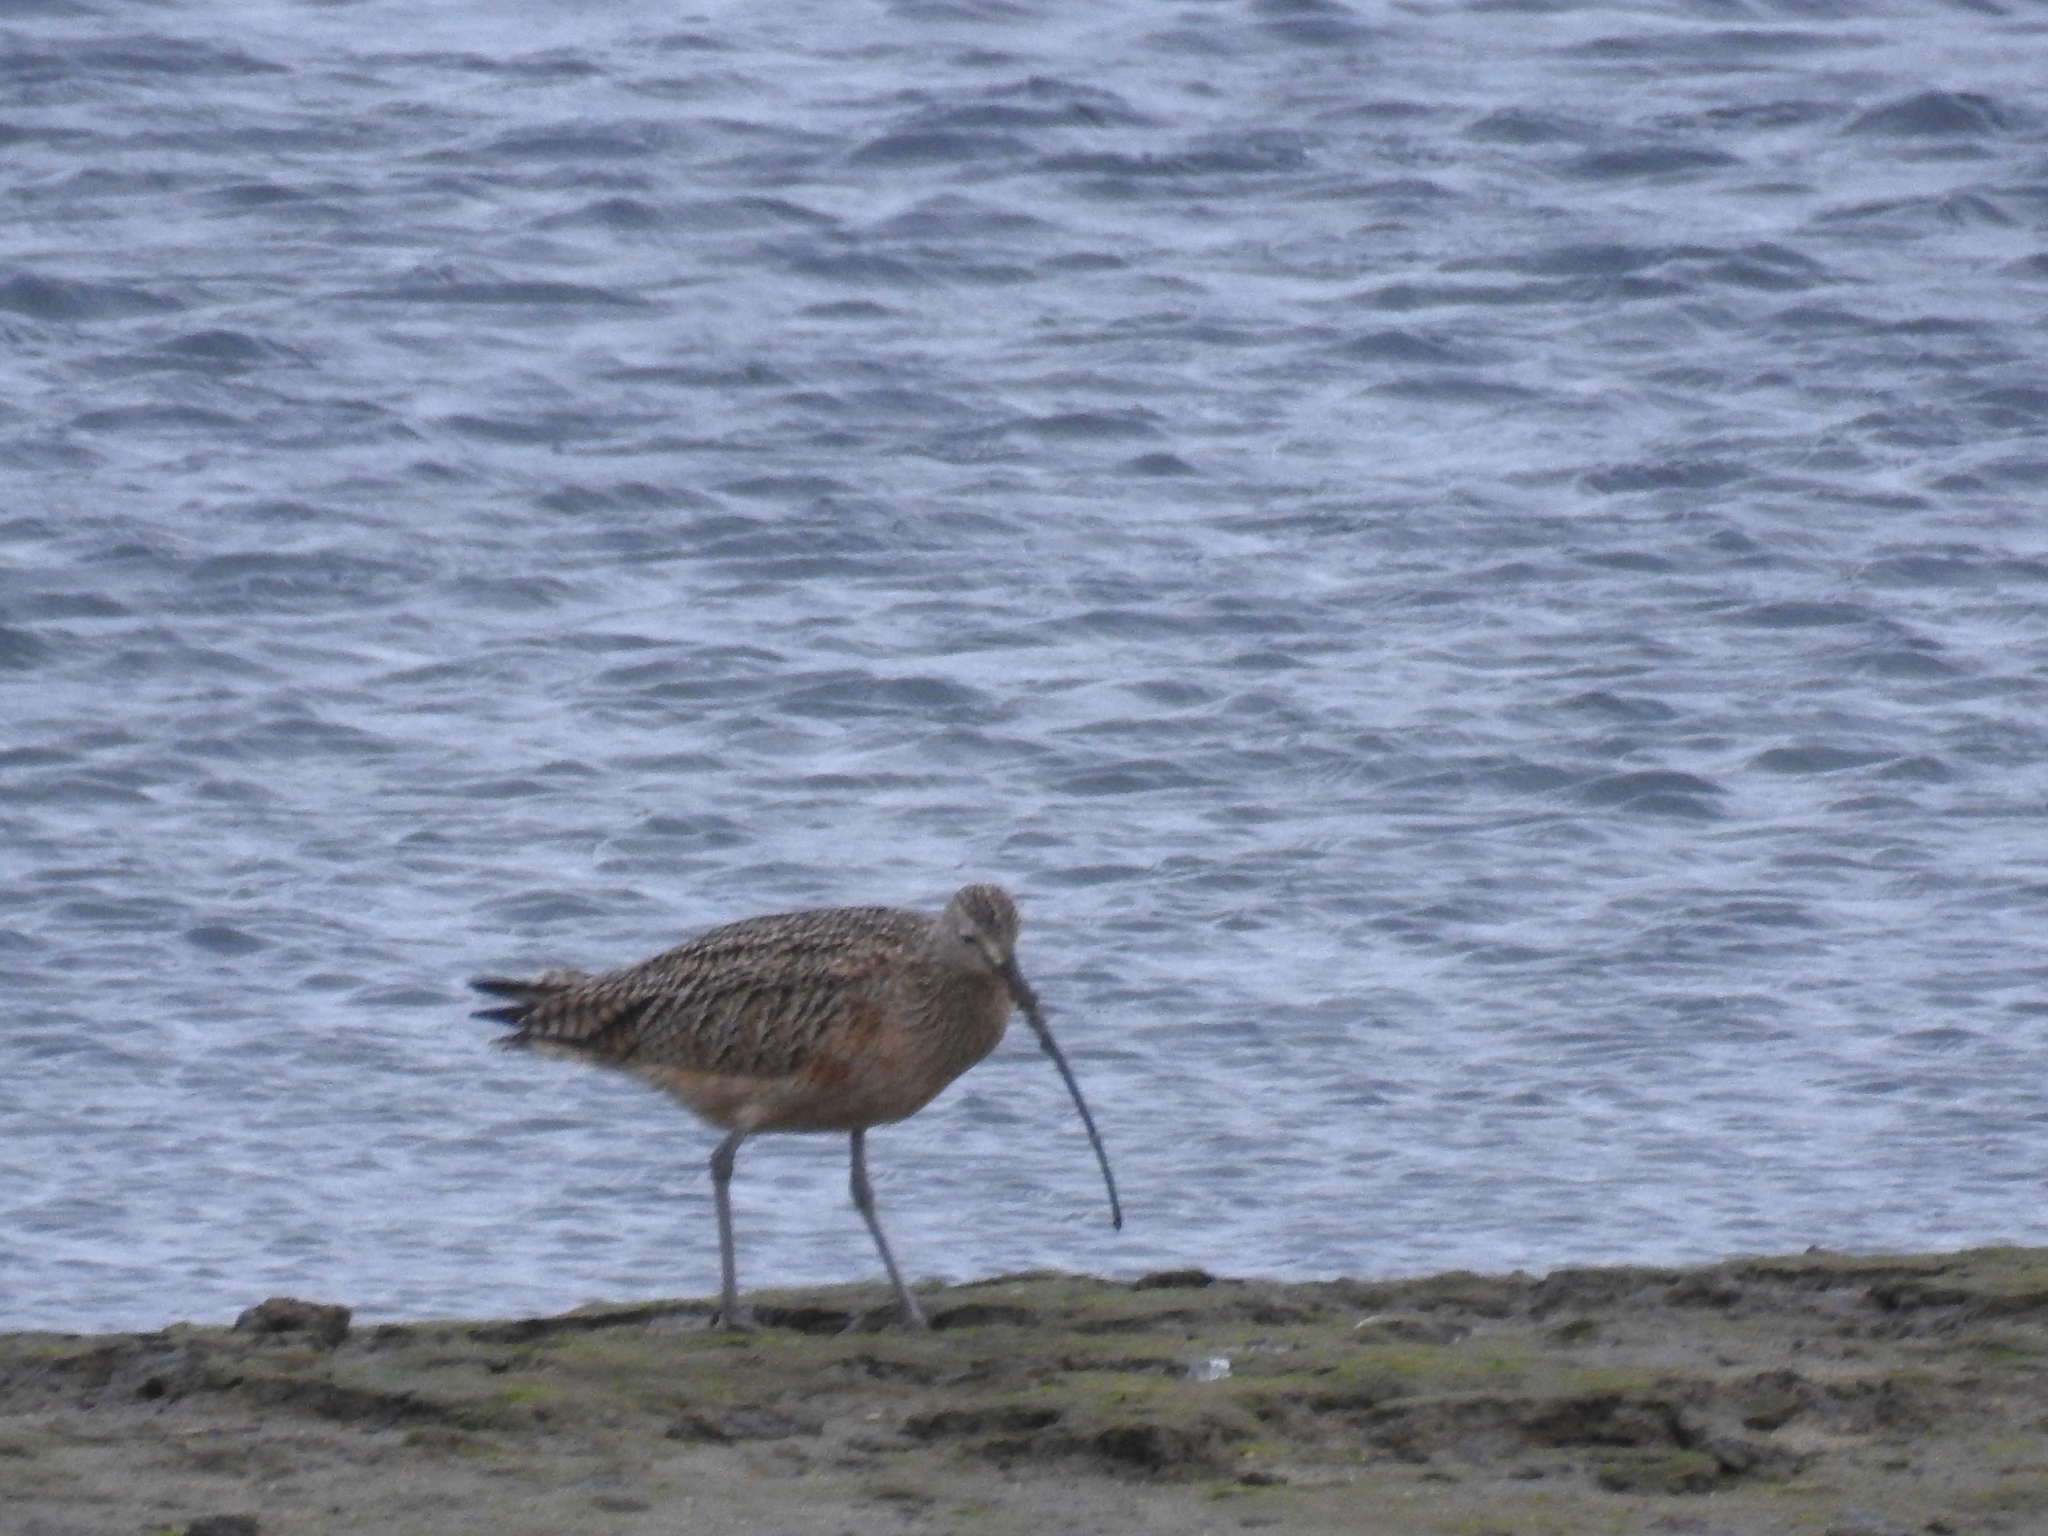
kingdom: Animalia
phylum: Chordata
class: Aves
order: Charadriiformes
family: Scolopacidae
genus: Numenius
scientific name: Numenius americanus
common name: Long-billed curlew
